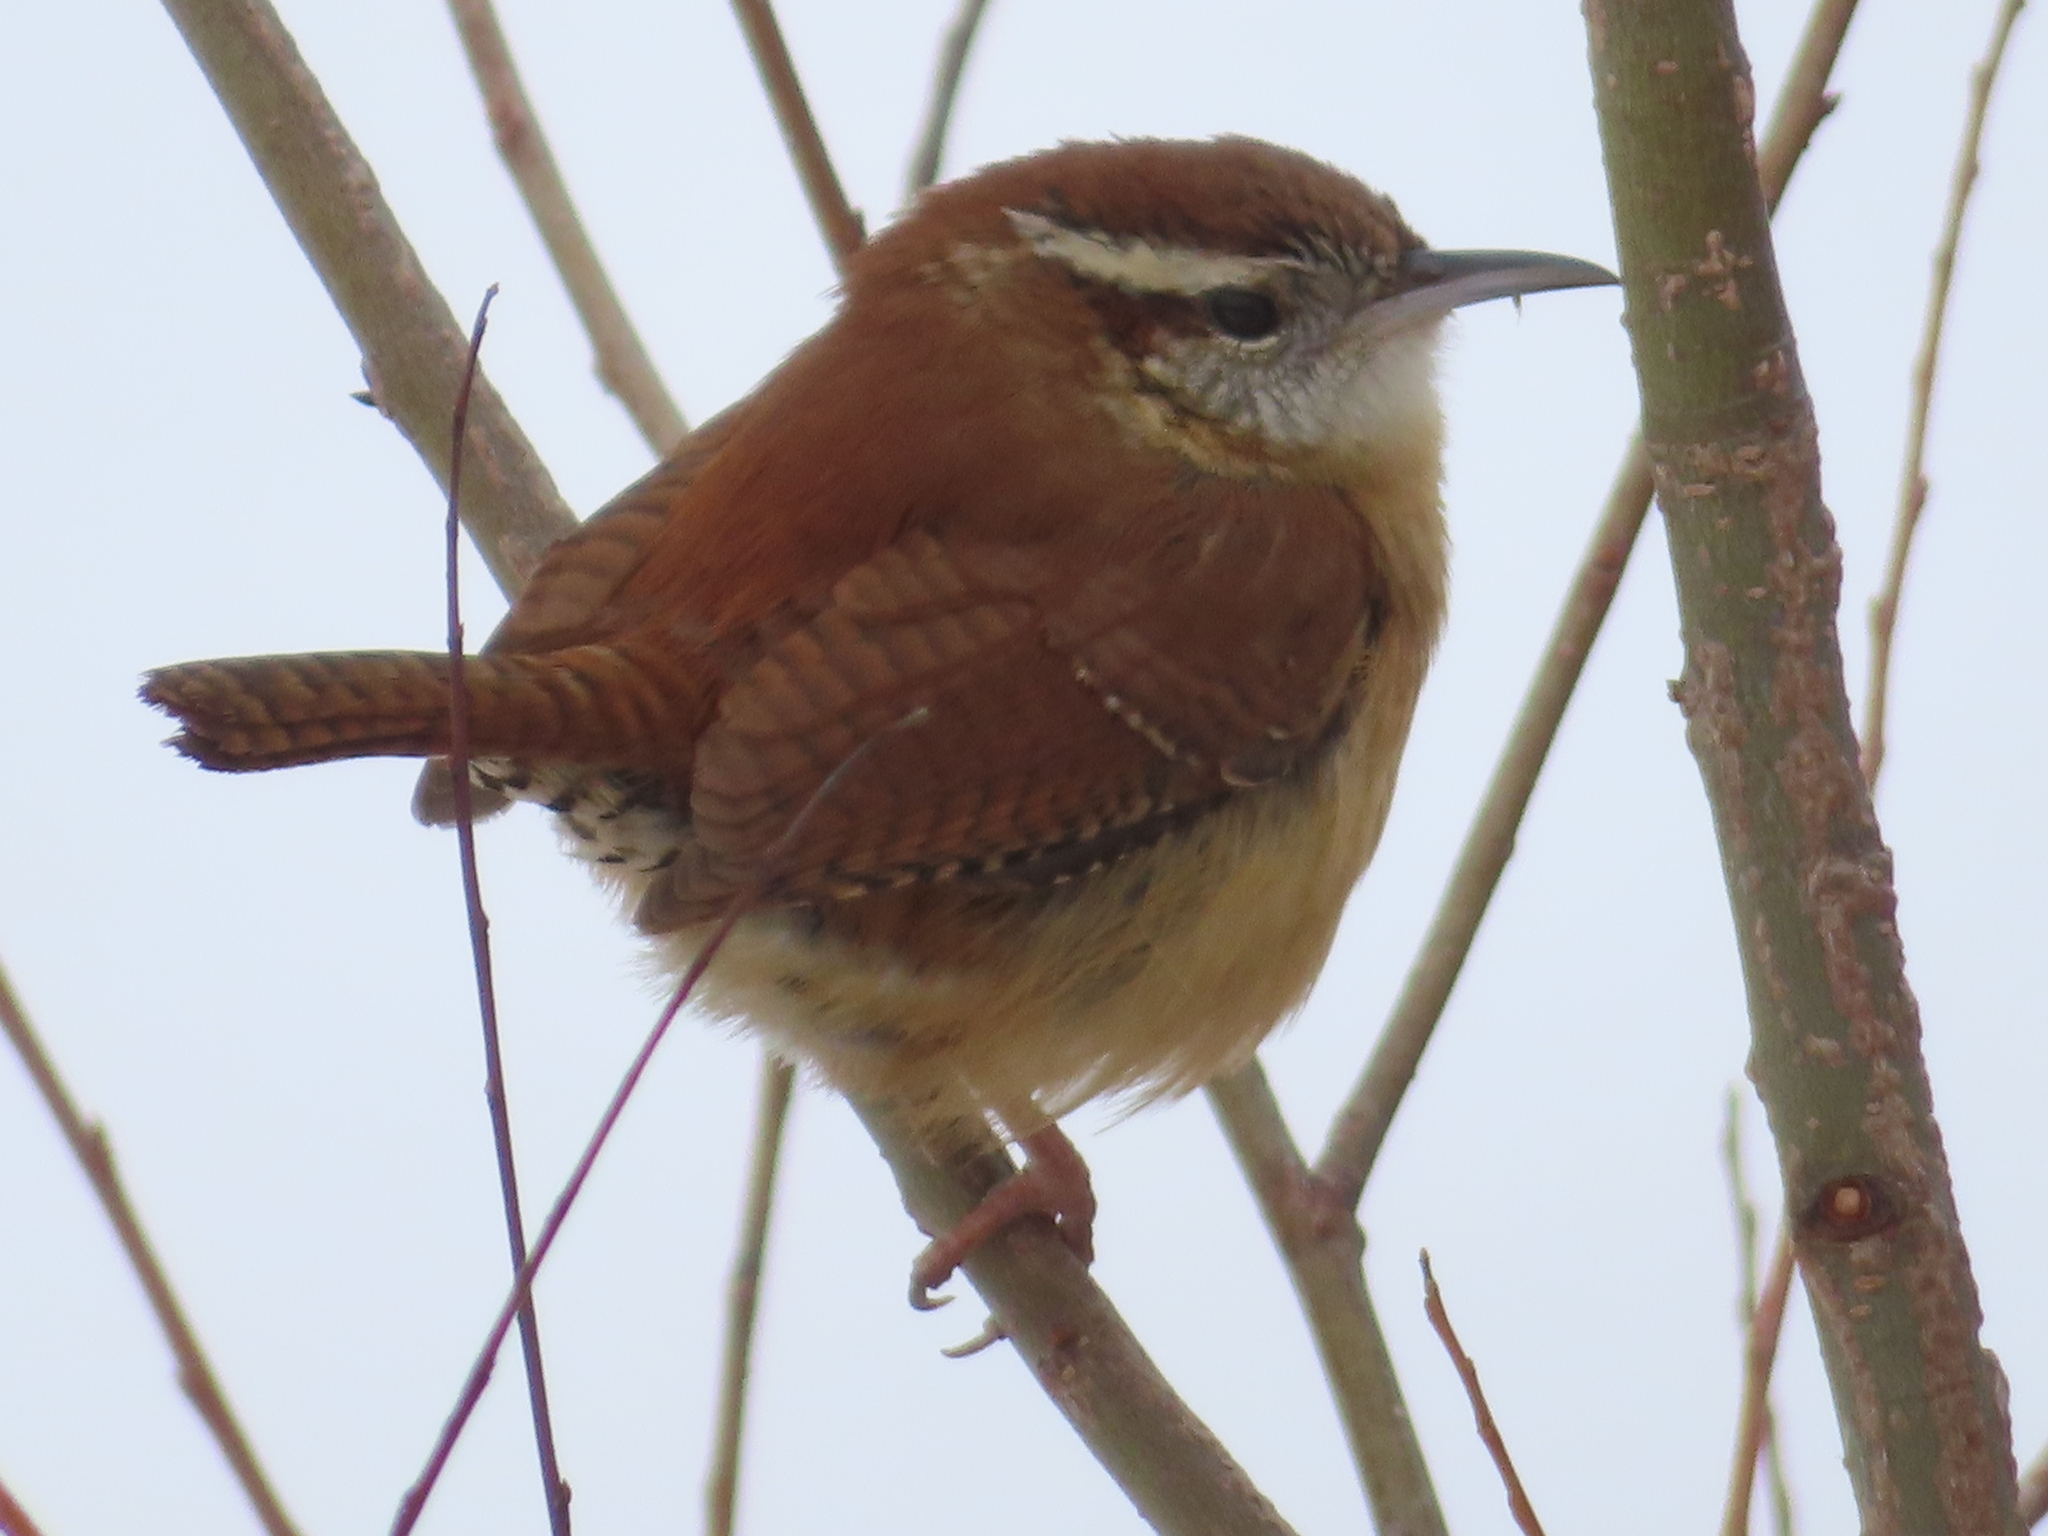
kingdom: Animalia
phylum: Chordata
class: Aves
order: Passeriformes
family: Troglodytidae
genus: Thryothorus
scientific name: Thryothorus ludovicianus
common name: Carolina wren
